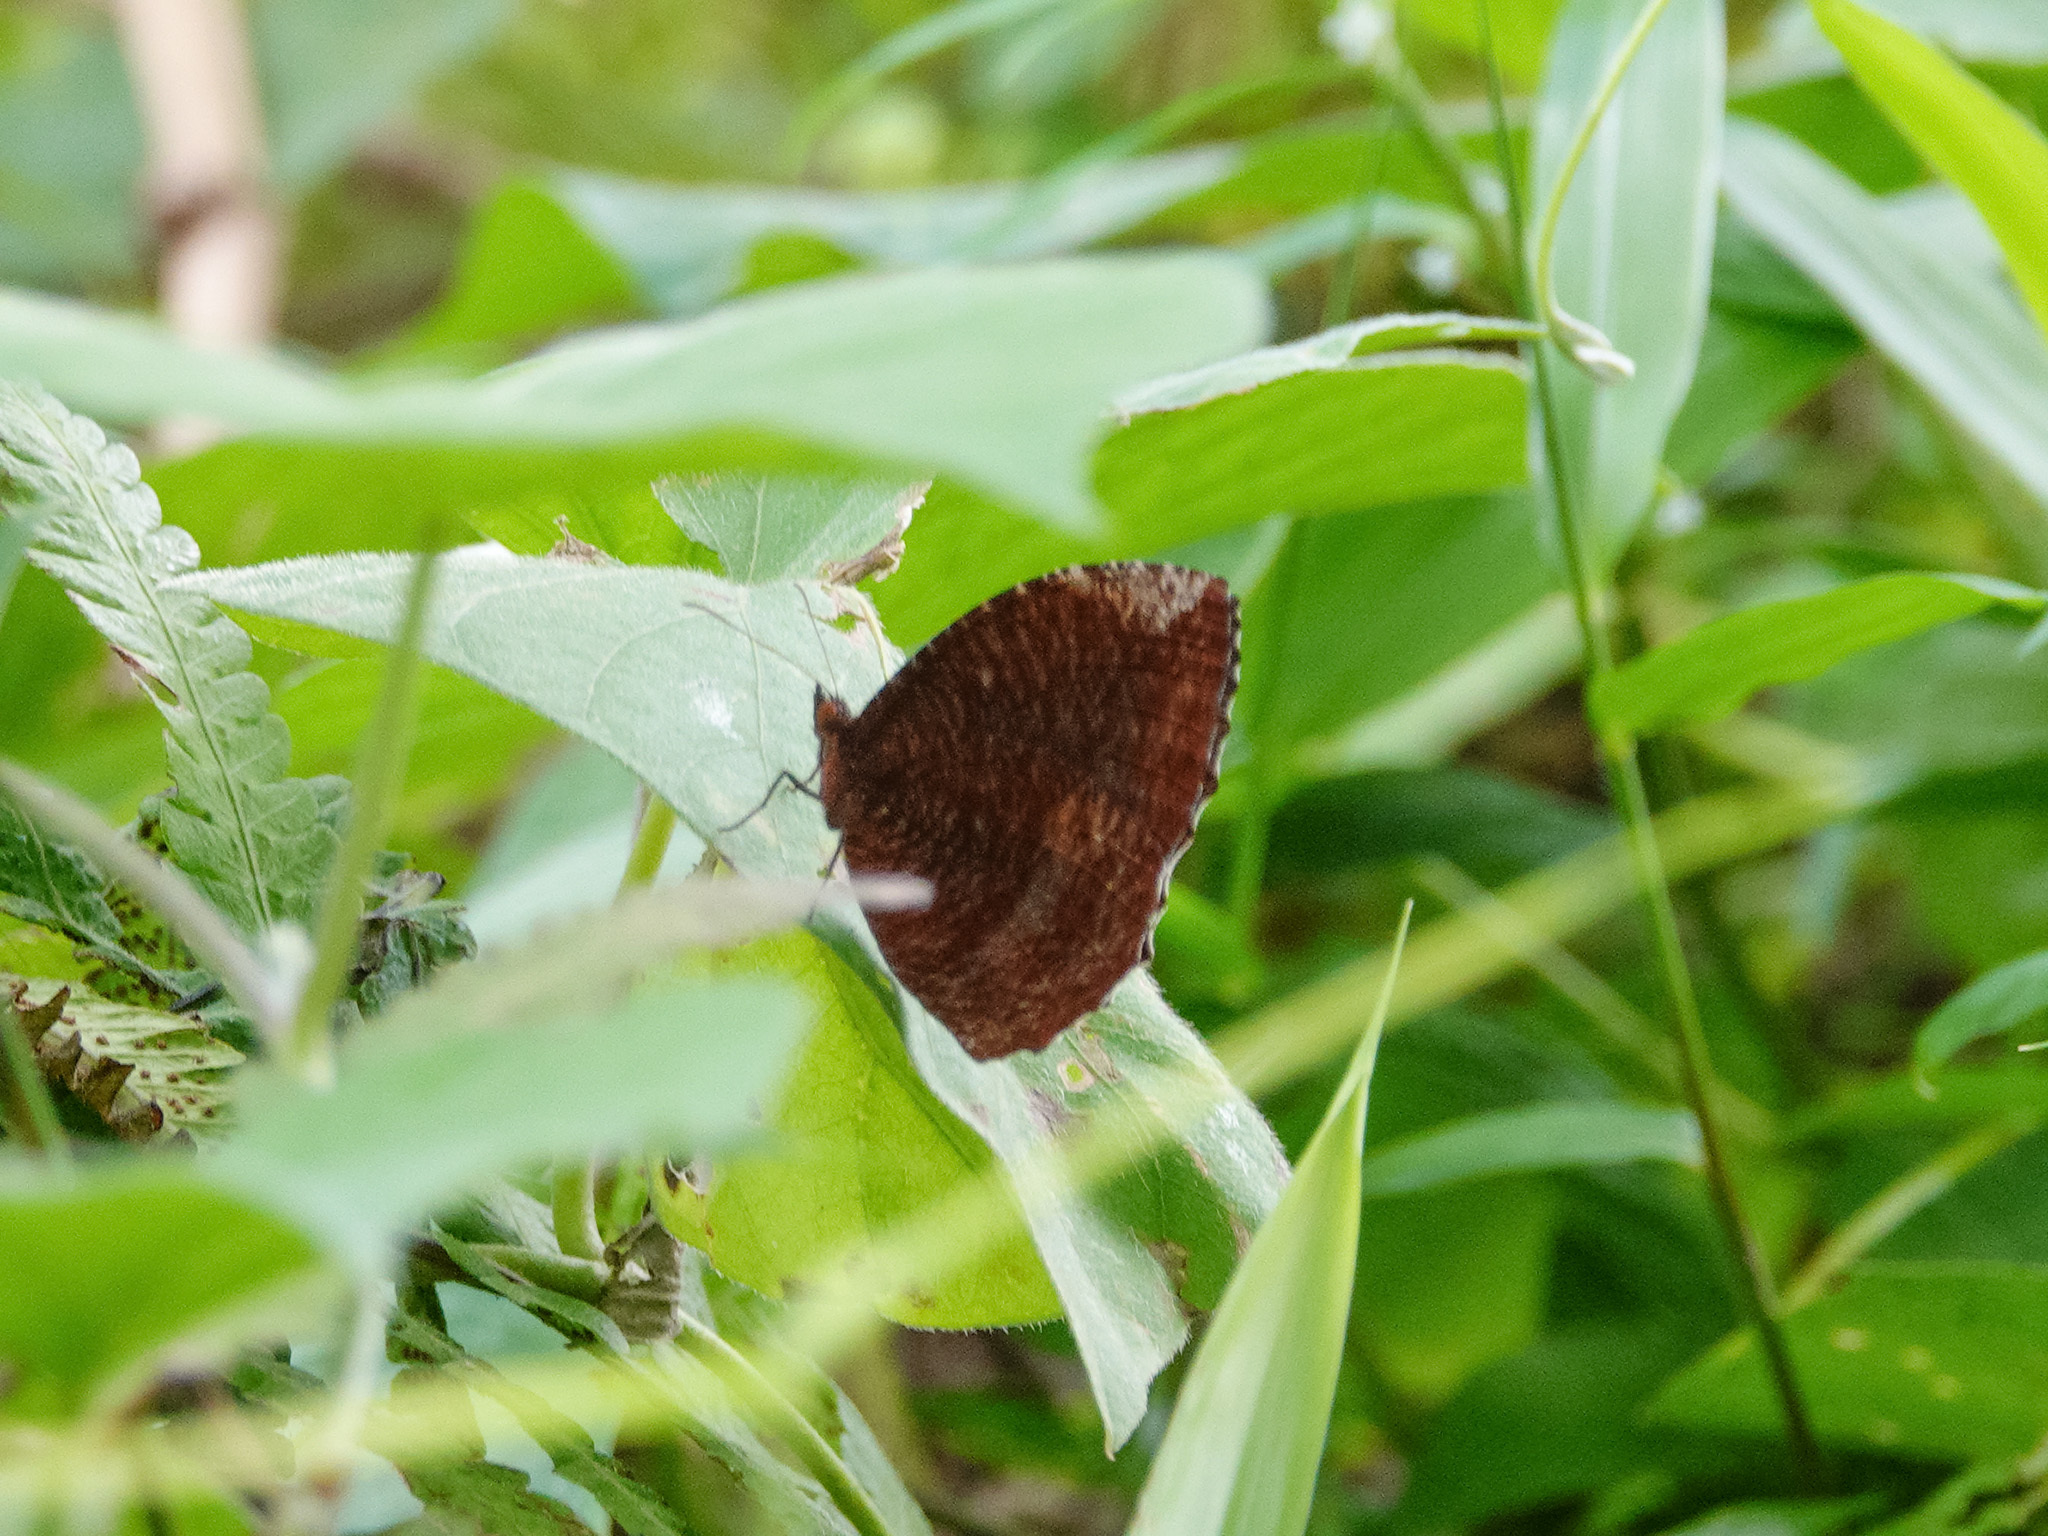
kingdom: Animalia
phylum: Arthropoda
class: Insecta
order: Lepidoptera
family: Nymphalidae
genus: Elymnias
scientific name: Elymnias hypermnestra
